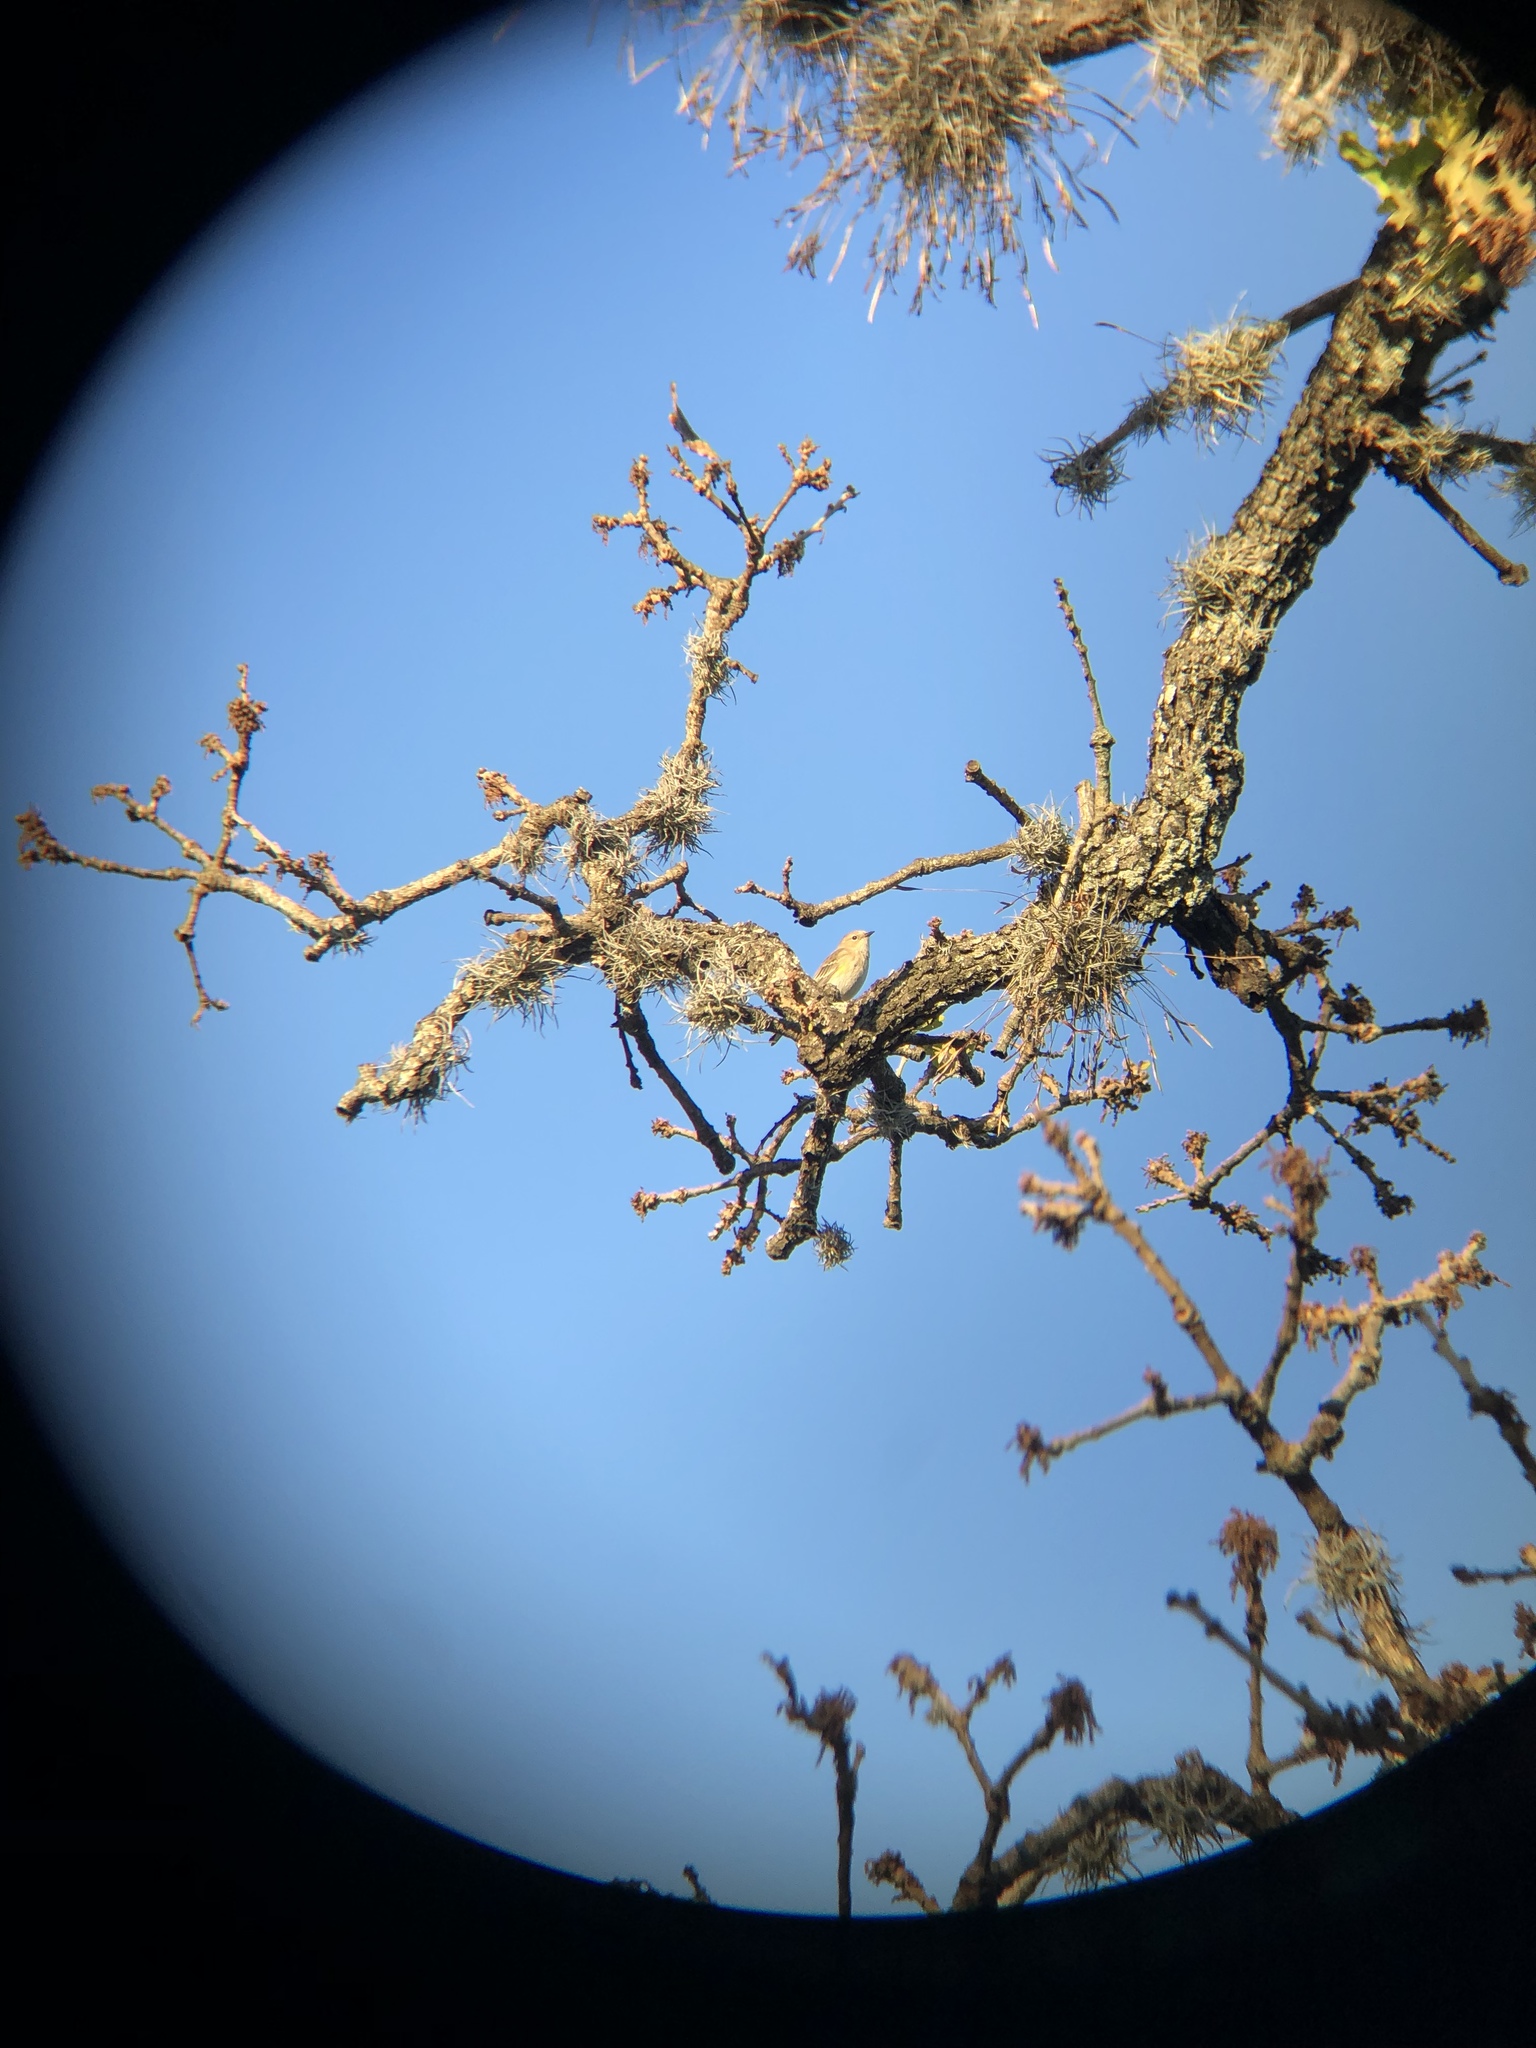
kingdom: Animalia
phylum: Chordata
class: Aves
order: Passeriformes
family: Parulidae
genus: Setophaga
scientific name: Setophaga coronata
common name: Myrtle warbler
